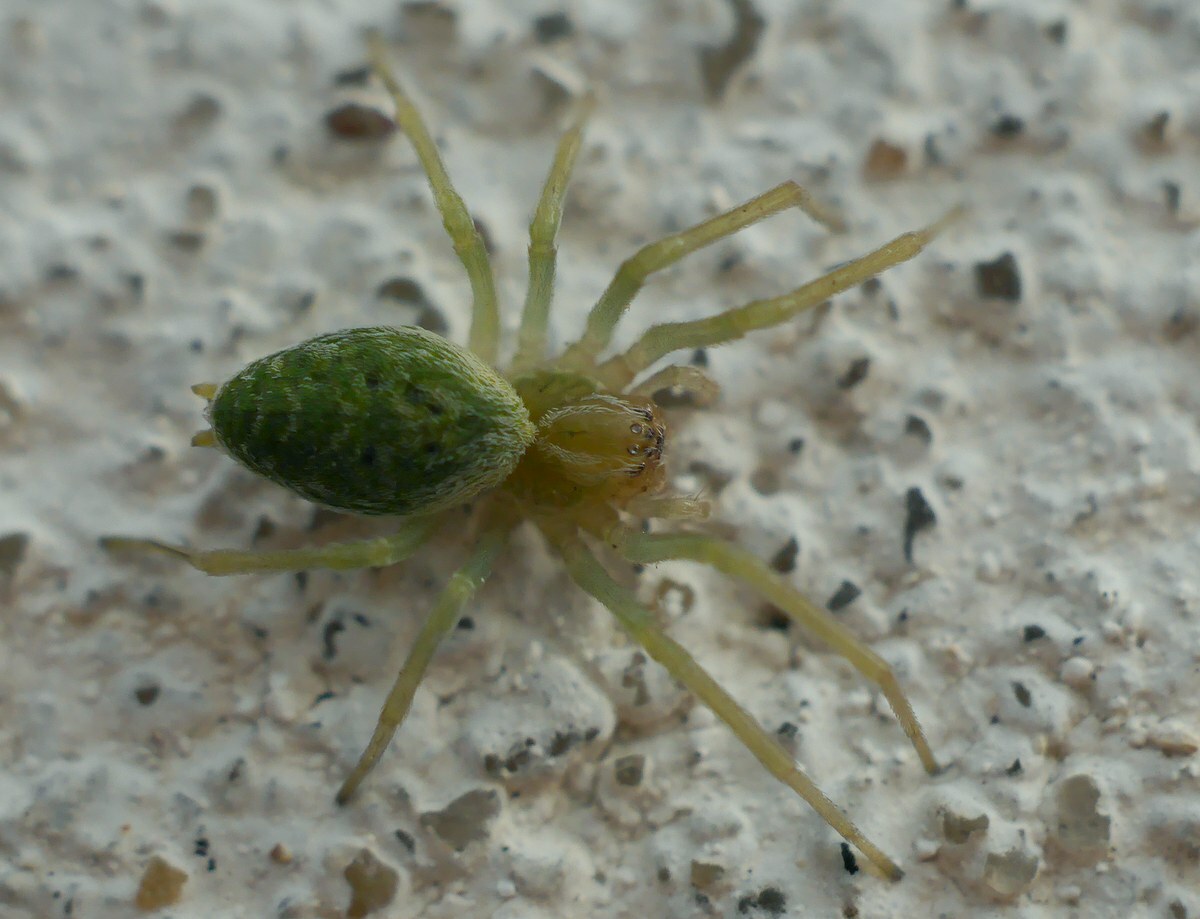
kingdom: Animalia
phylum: Arthropoda
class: Arachnida
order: Araneae
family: Dictynidae
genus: Nigma
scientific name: Nigma walckenaeri
